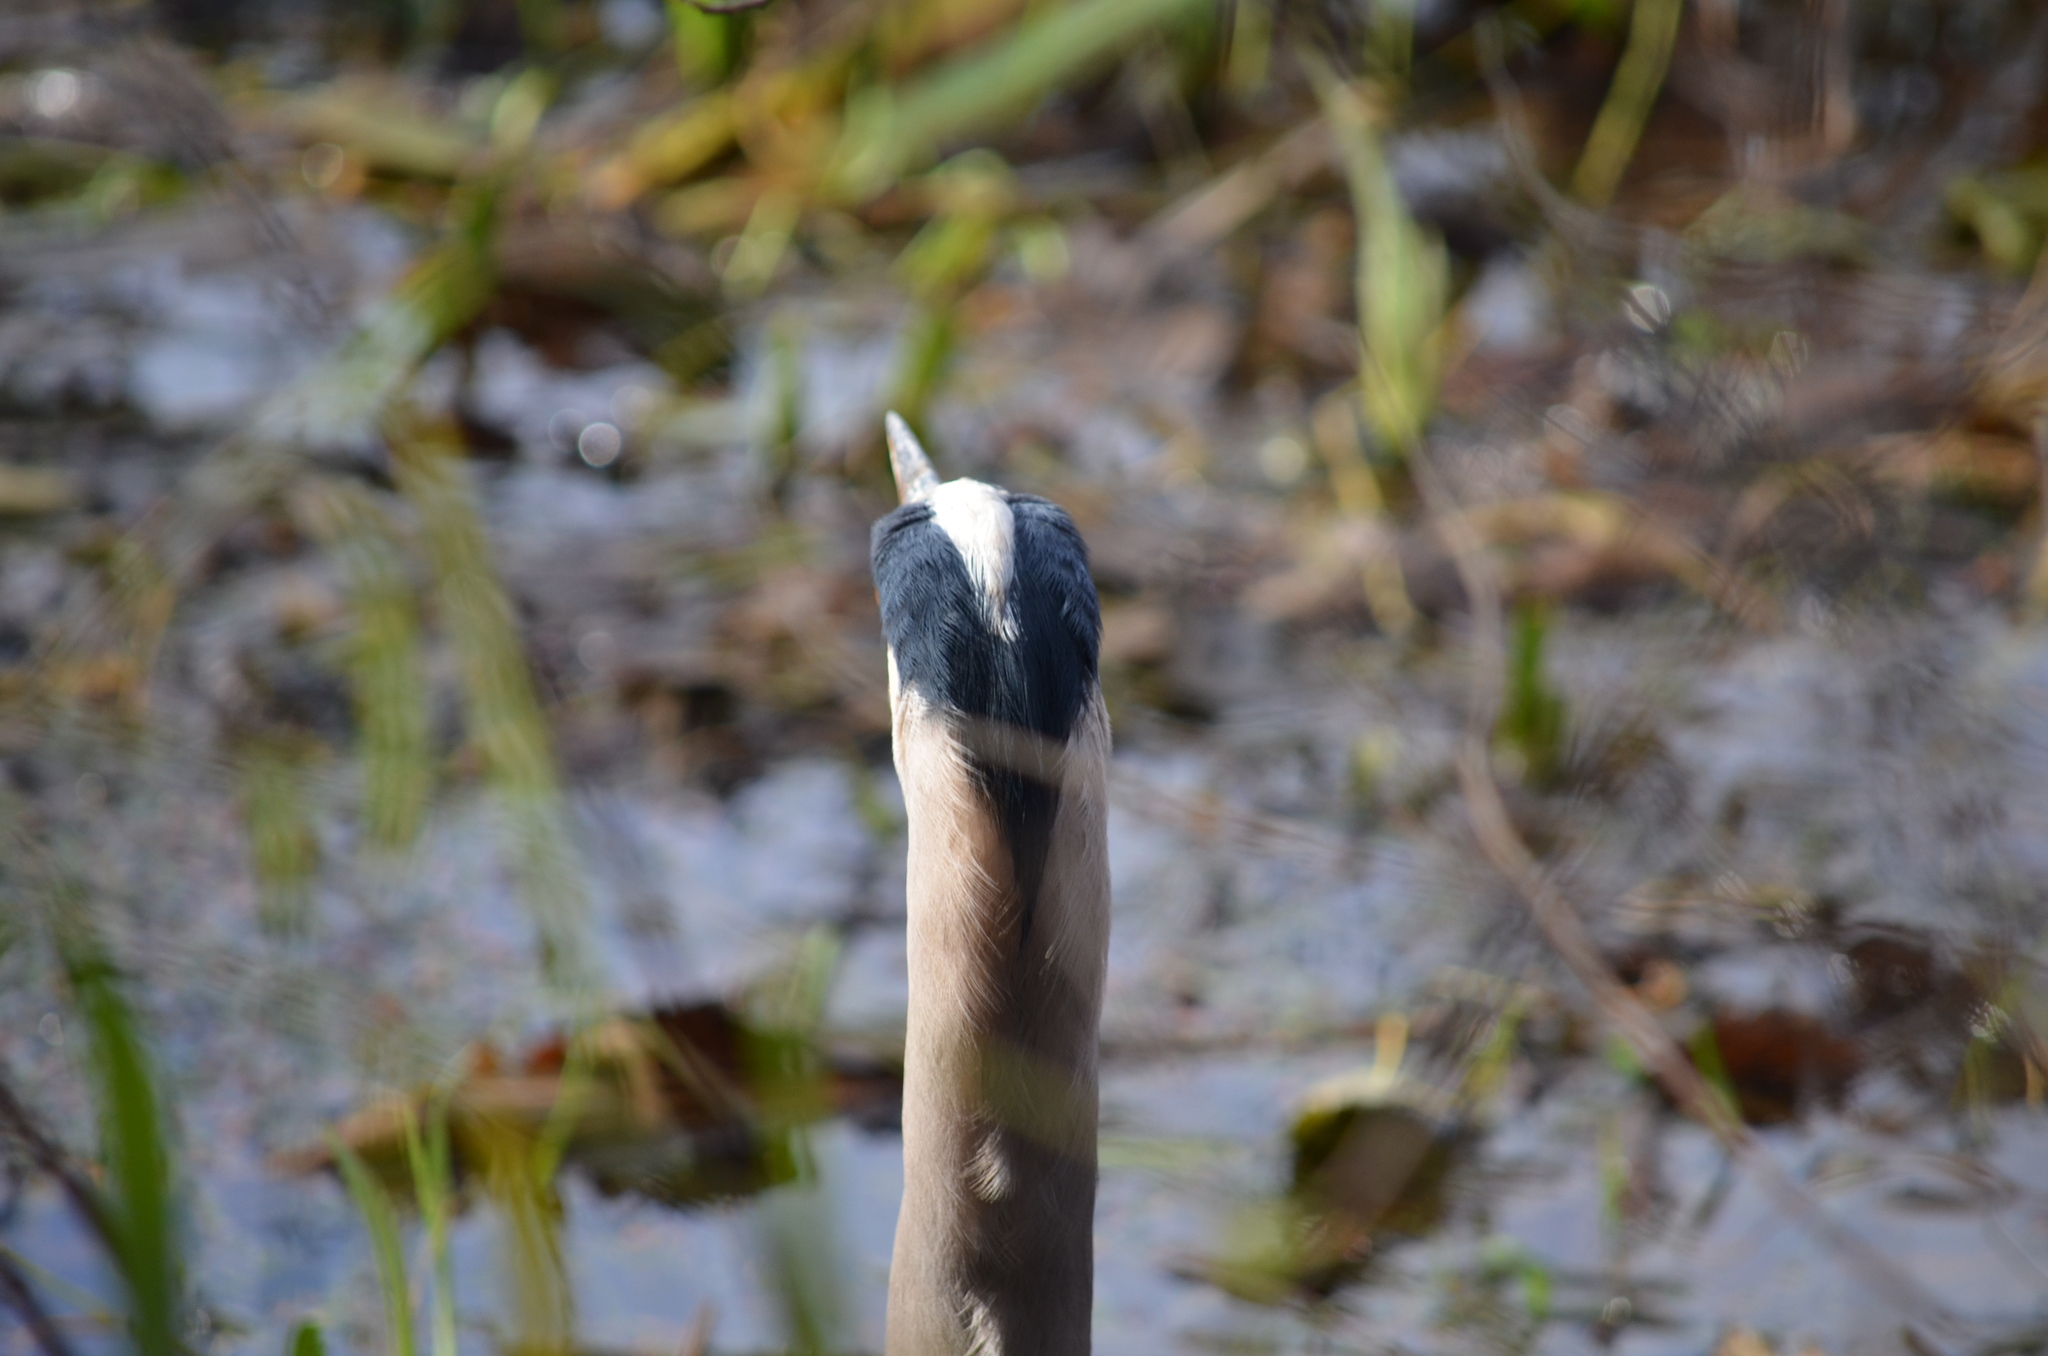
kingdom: Animalia
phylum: Chordata
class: Aves
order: Pelecaniformes
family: Ardeidae
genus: Ardea
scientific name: Ardea herodias
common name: Great blue heron
